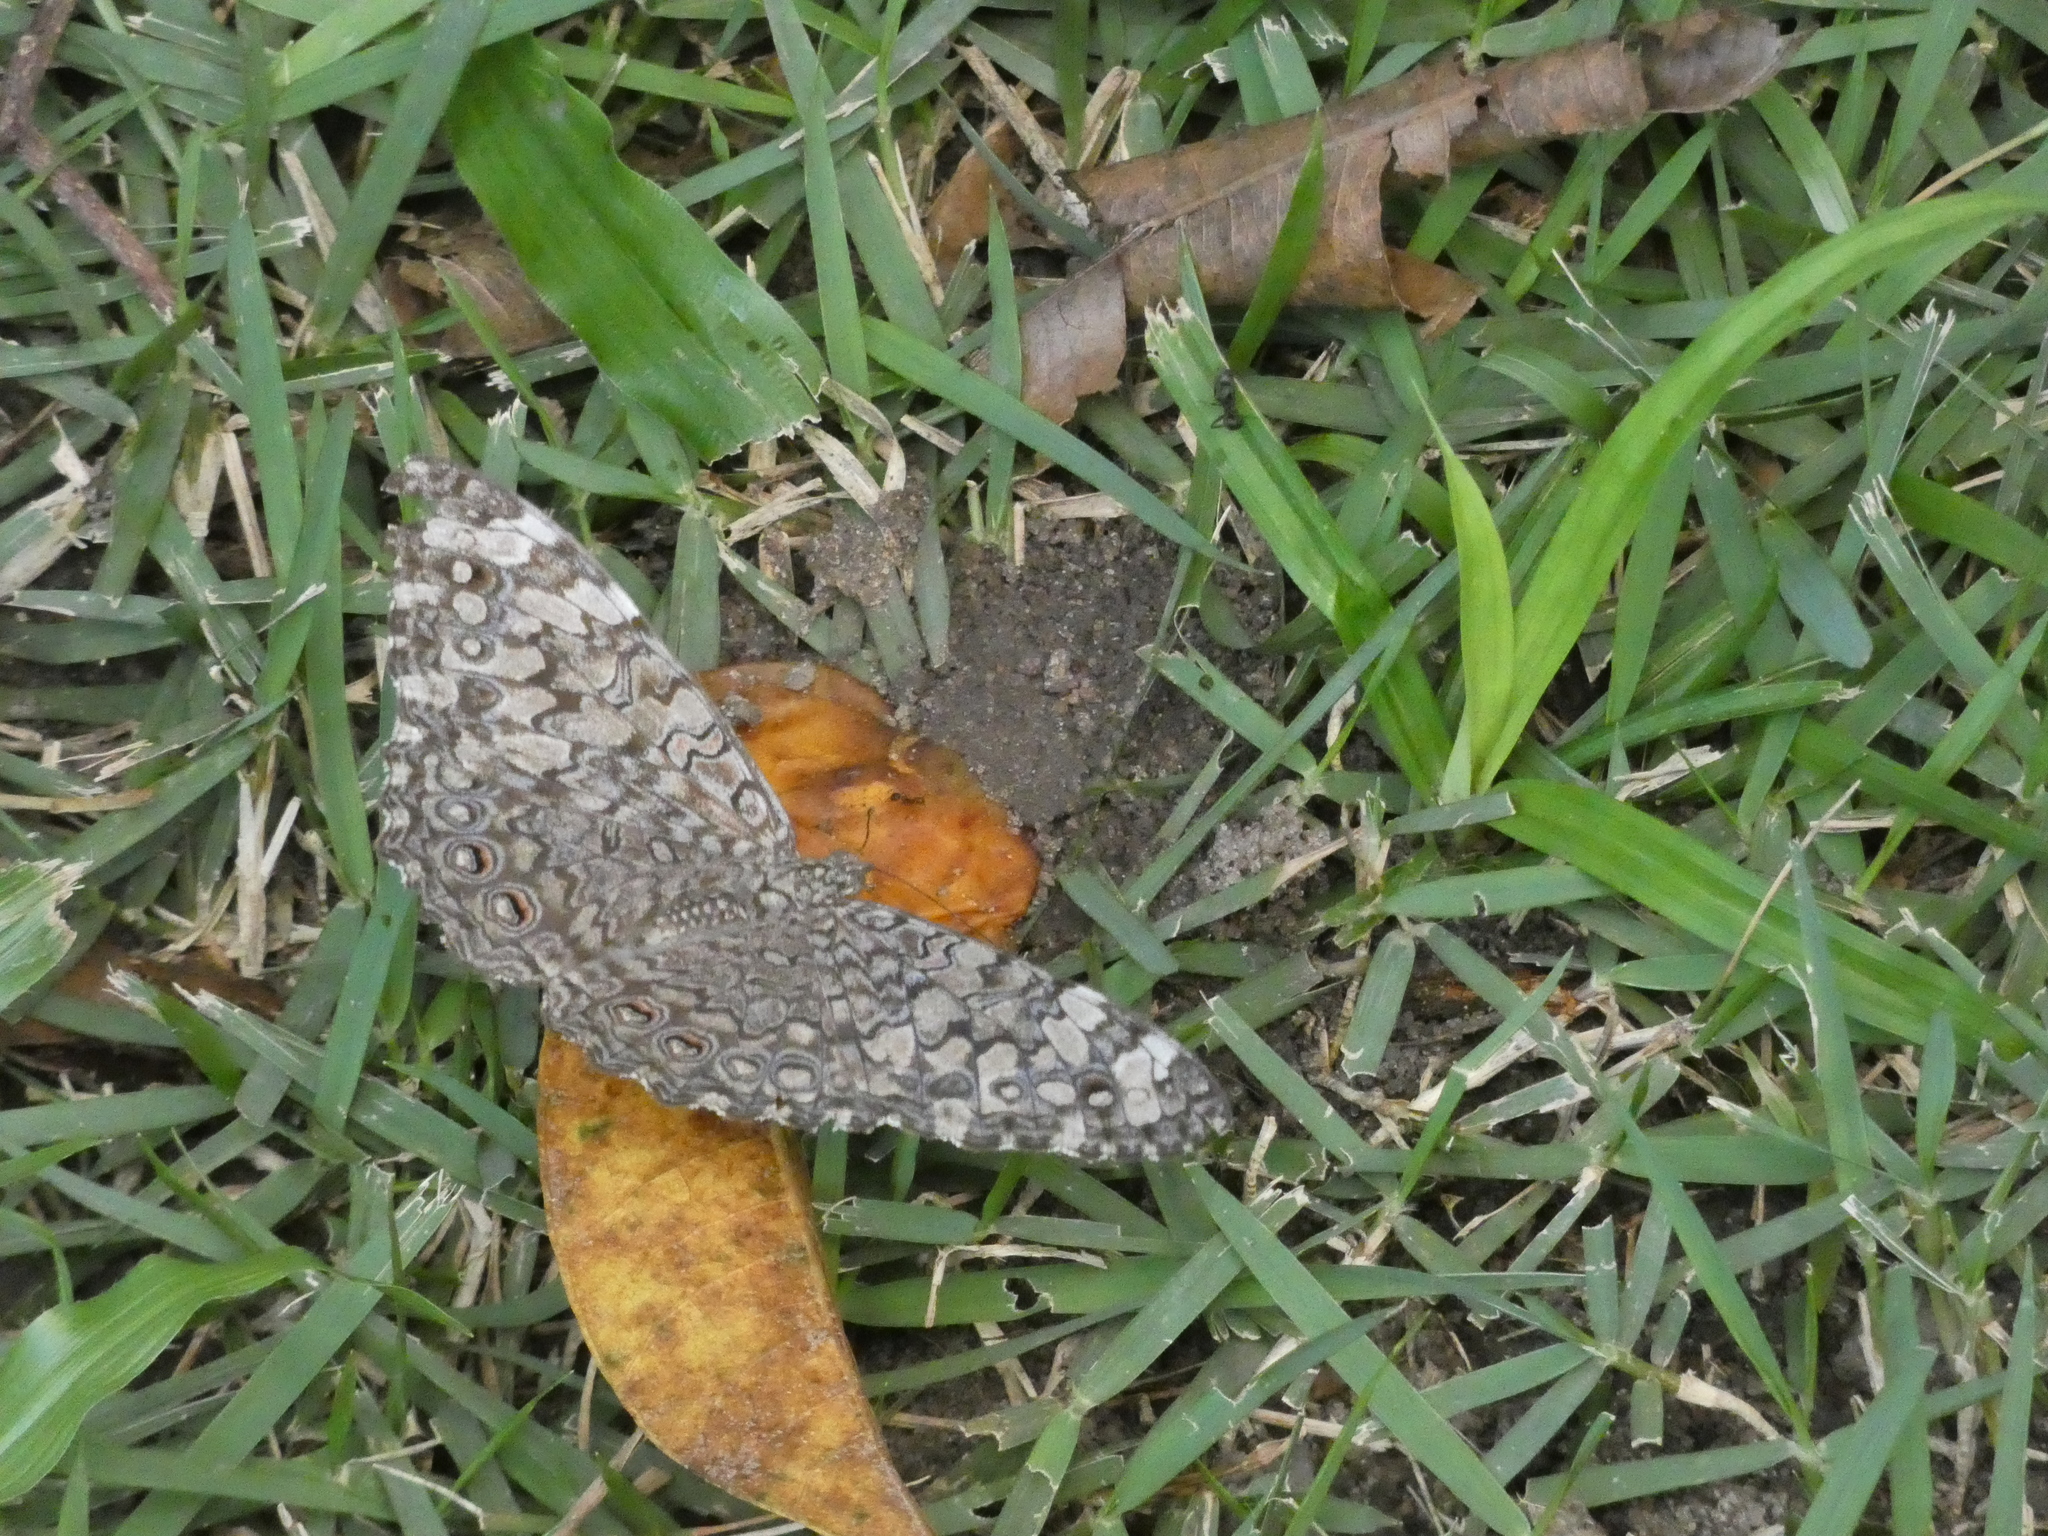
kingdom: Animalia
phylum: Arthropoda
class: Insecta
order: Lepidoptera
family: Nymphalidae
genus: Hamadryas
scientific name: Hamadryas februa
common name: Gray cracker
